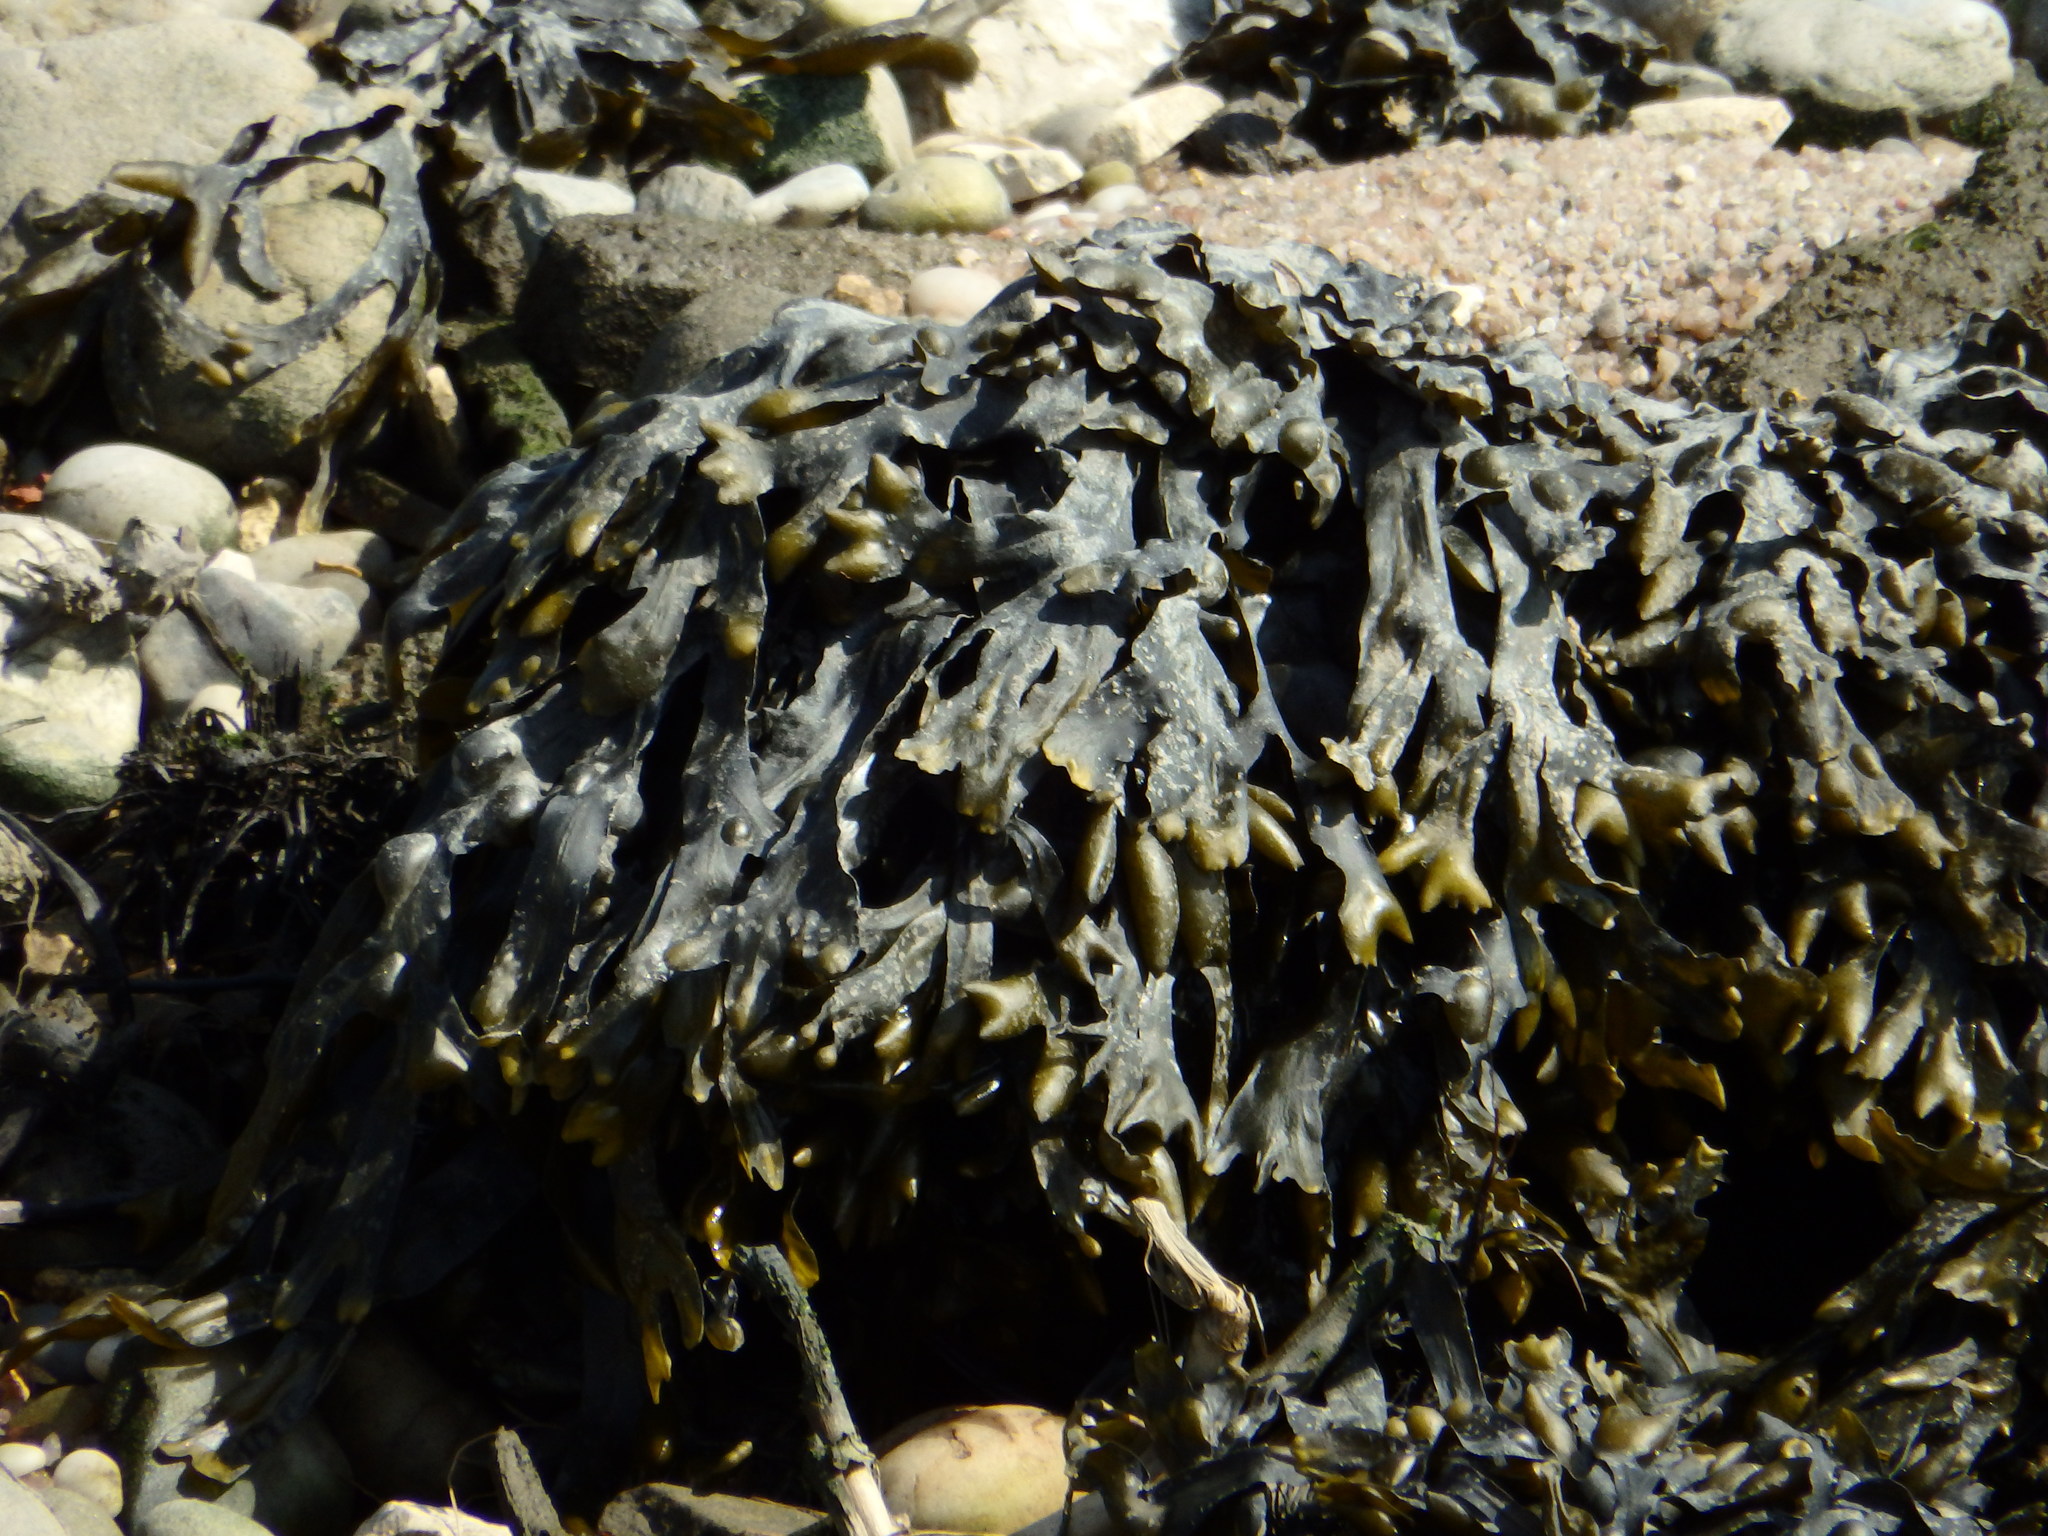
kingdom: Chromista
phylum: Ochrophyta
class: Phaeophyceae
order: Fucales
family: Fucaceae
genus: Fucus
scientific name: Fucus vesiculosus
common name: Bladder wrack
